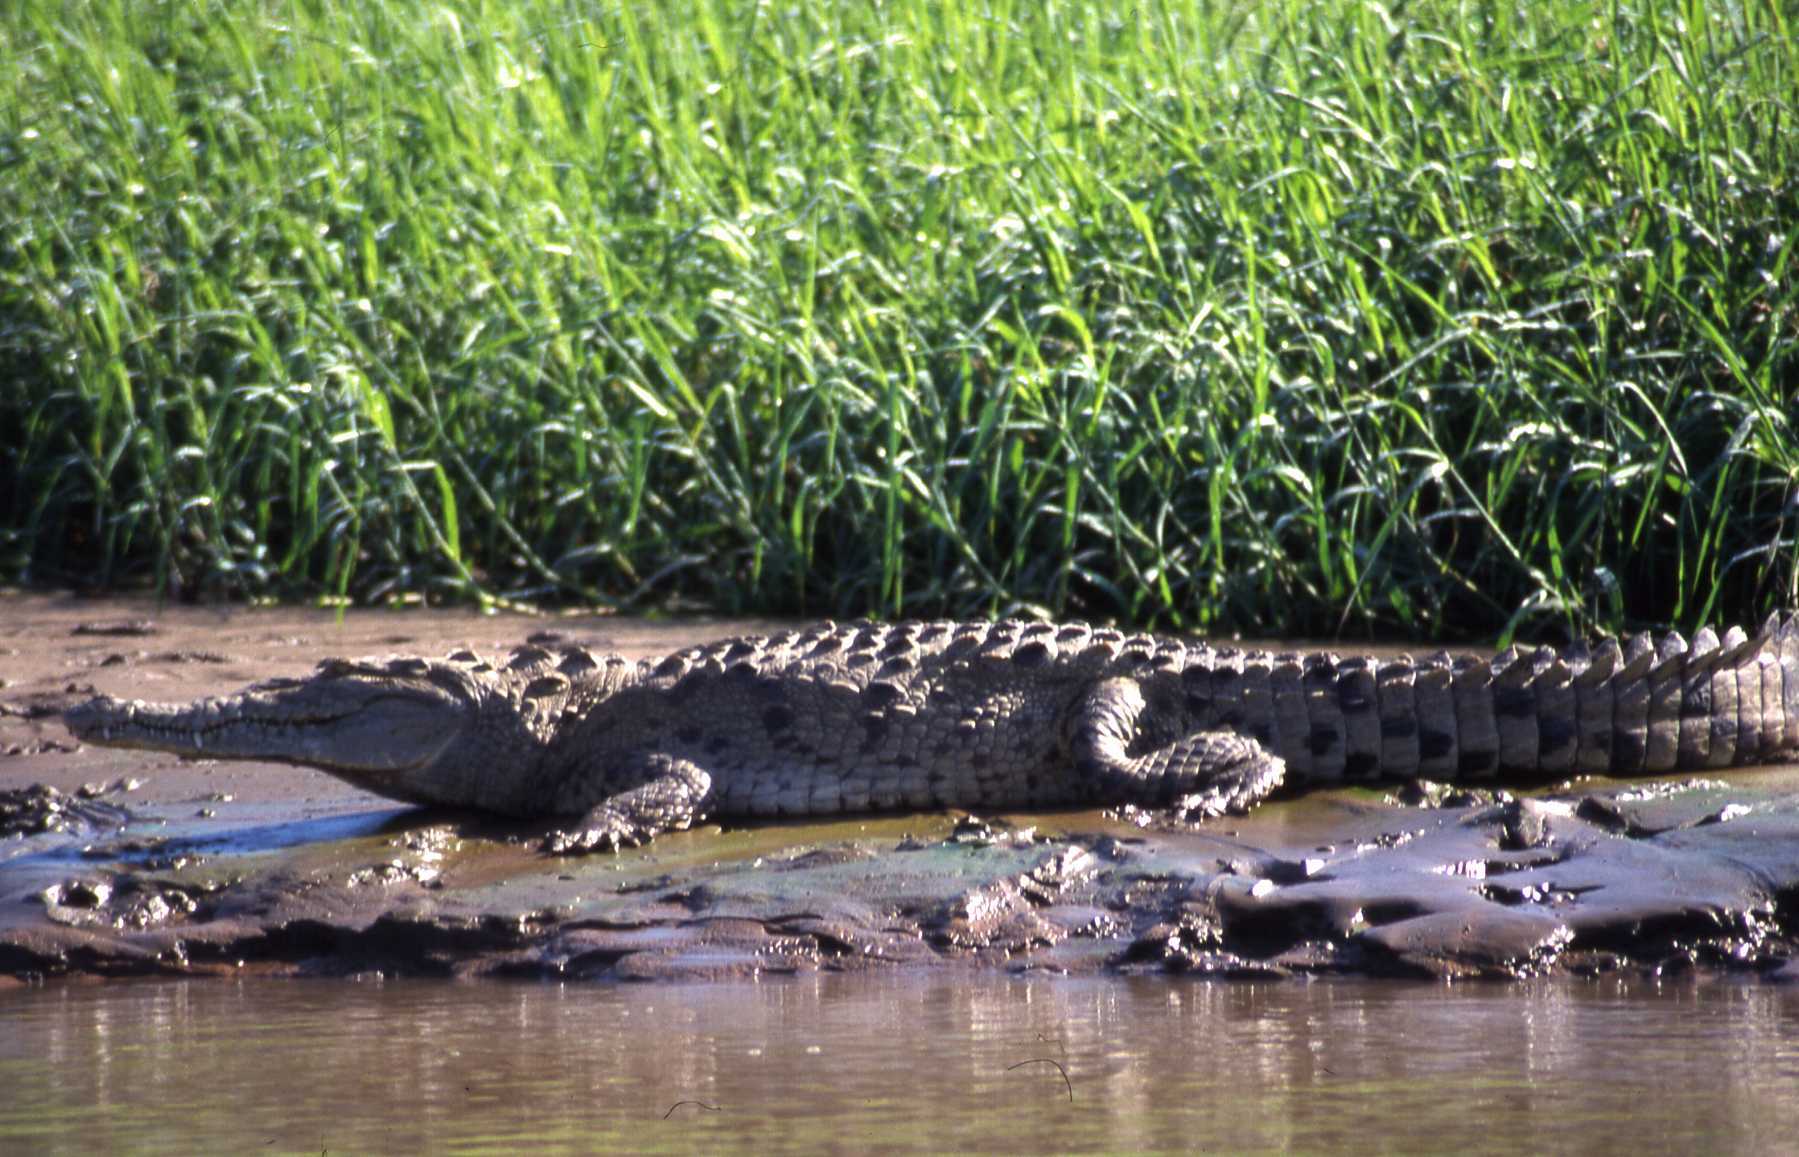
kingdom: Animalia
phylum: Chordata
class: Crocodylia
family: Crocodylidae
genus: Crocodylus
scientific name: Crocodylus acutus
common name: American crocodile
